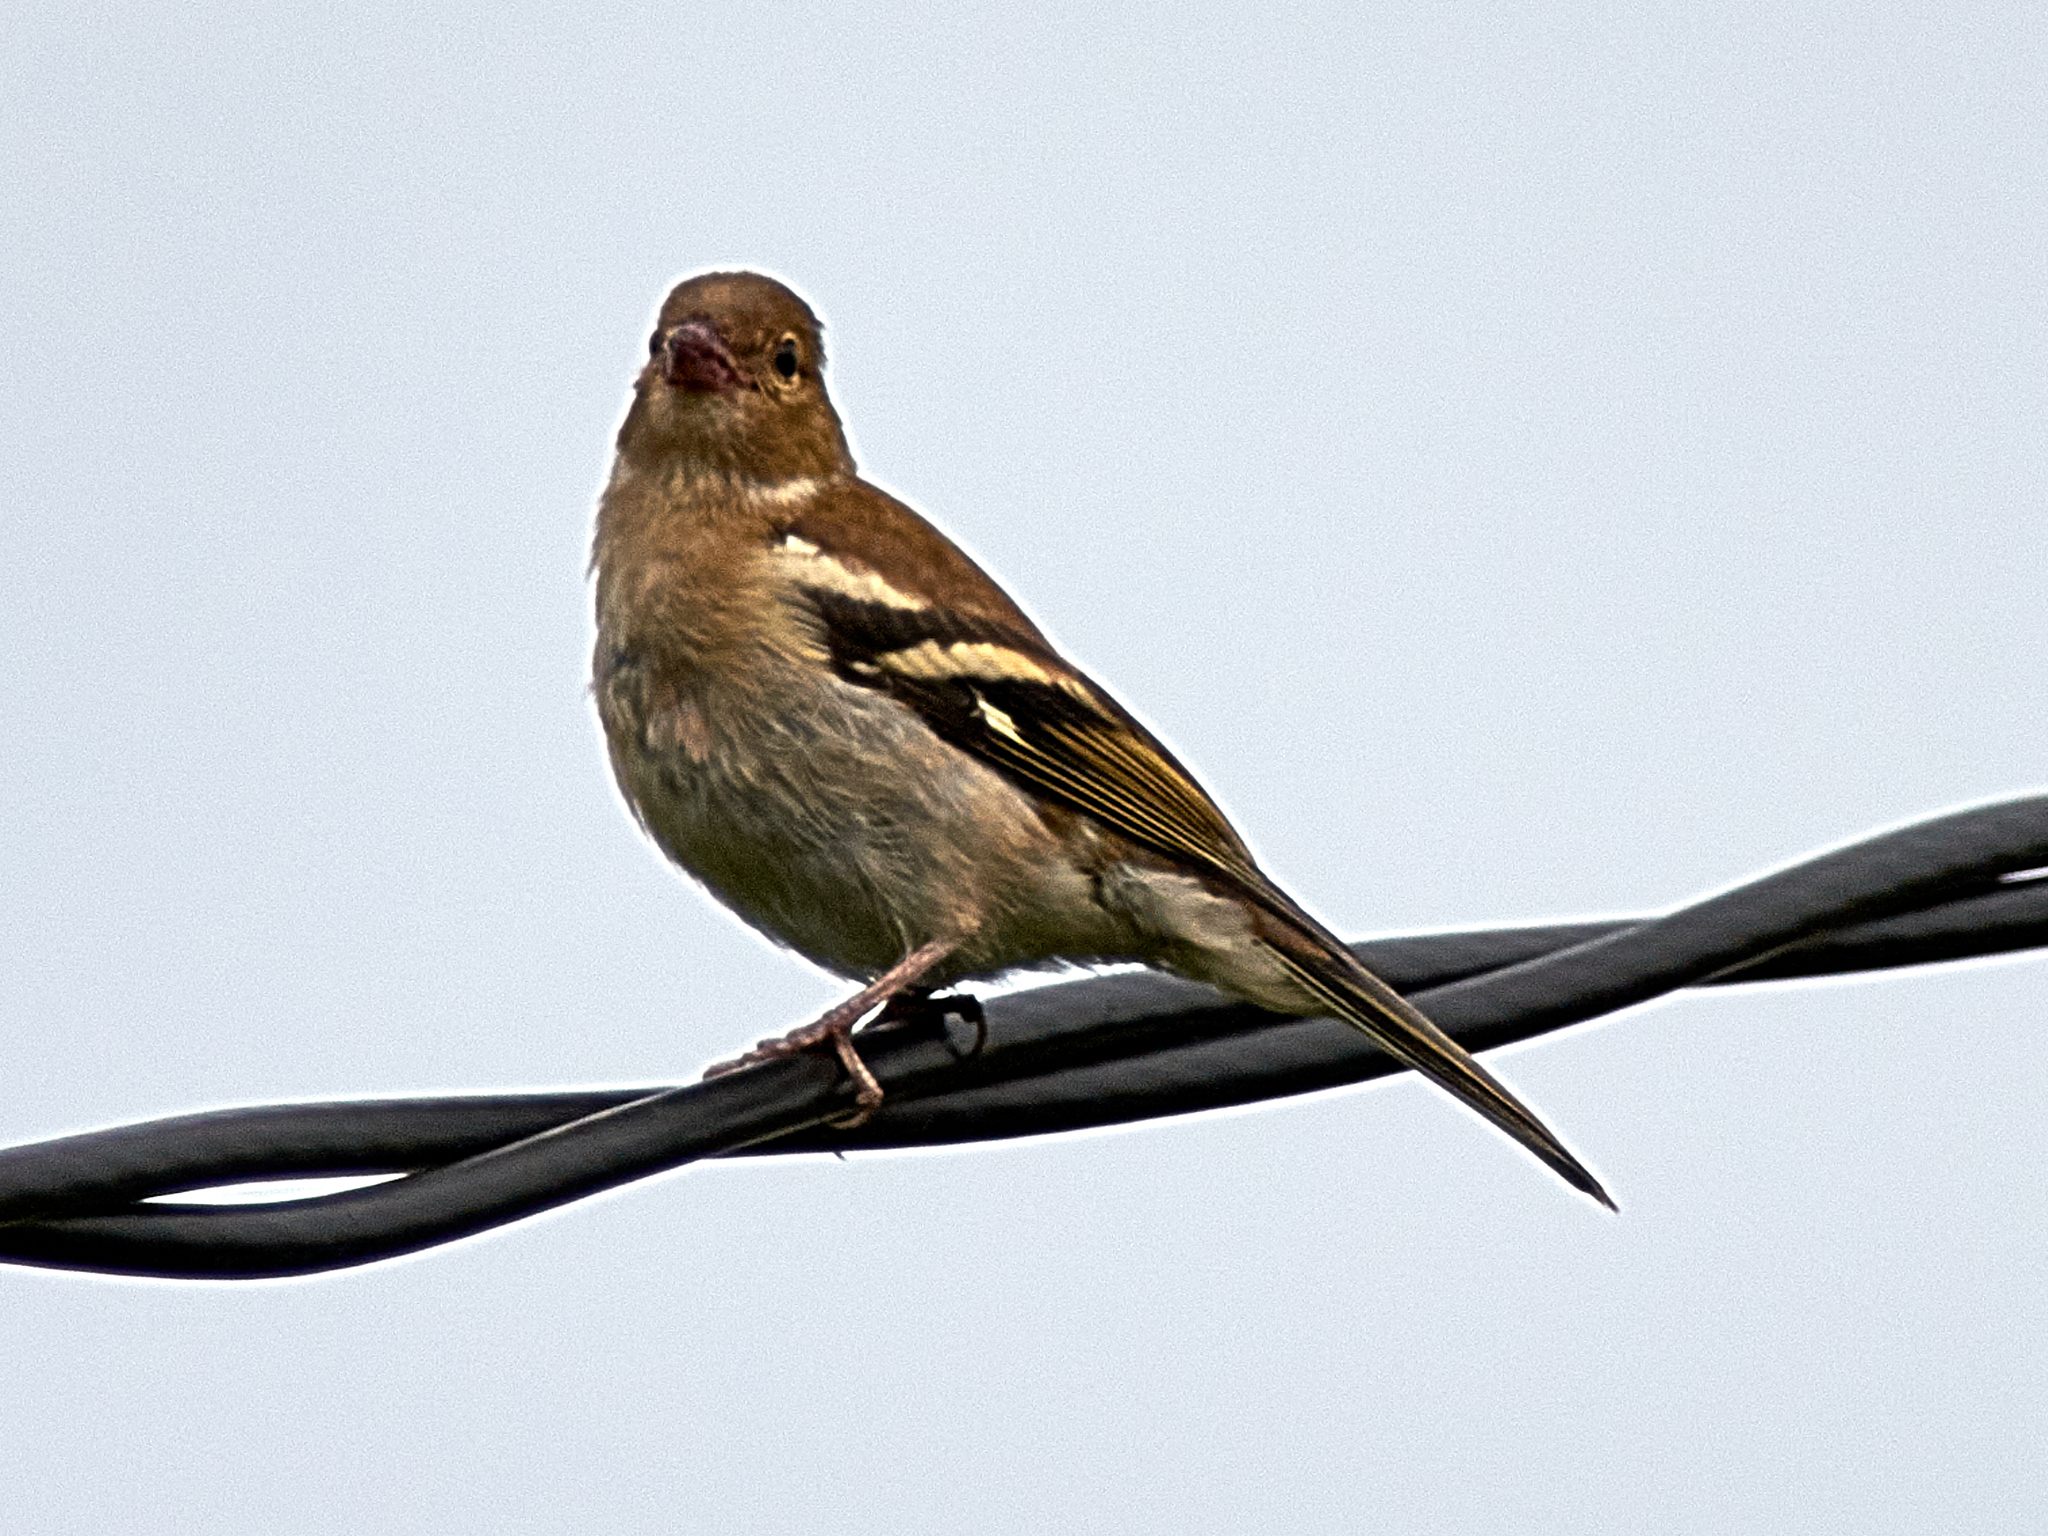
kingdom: Animalia
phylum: Chordata
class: Aves
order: Passeriformes
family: Fringillidae
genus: Fringilla
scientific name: Fringilla coelebs
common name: Common chaffinch
